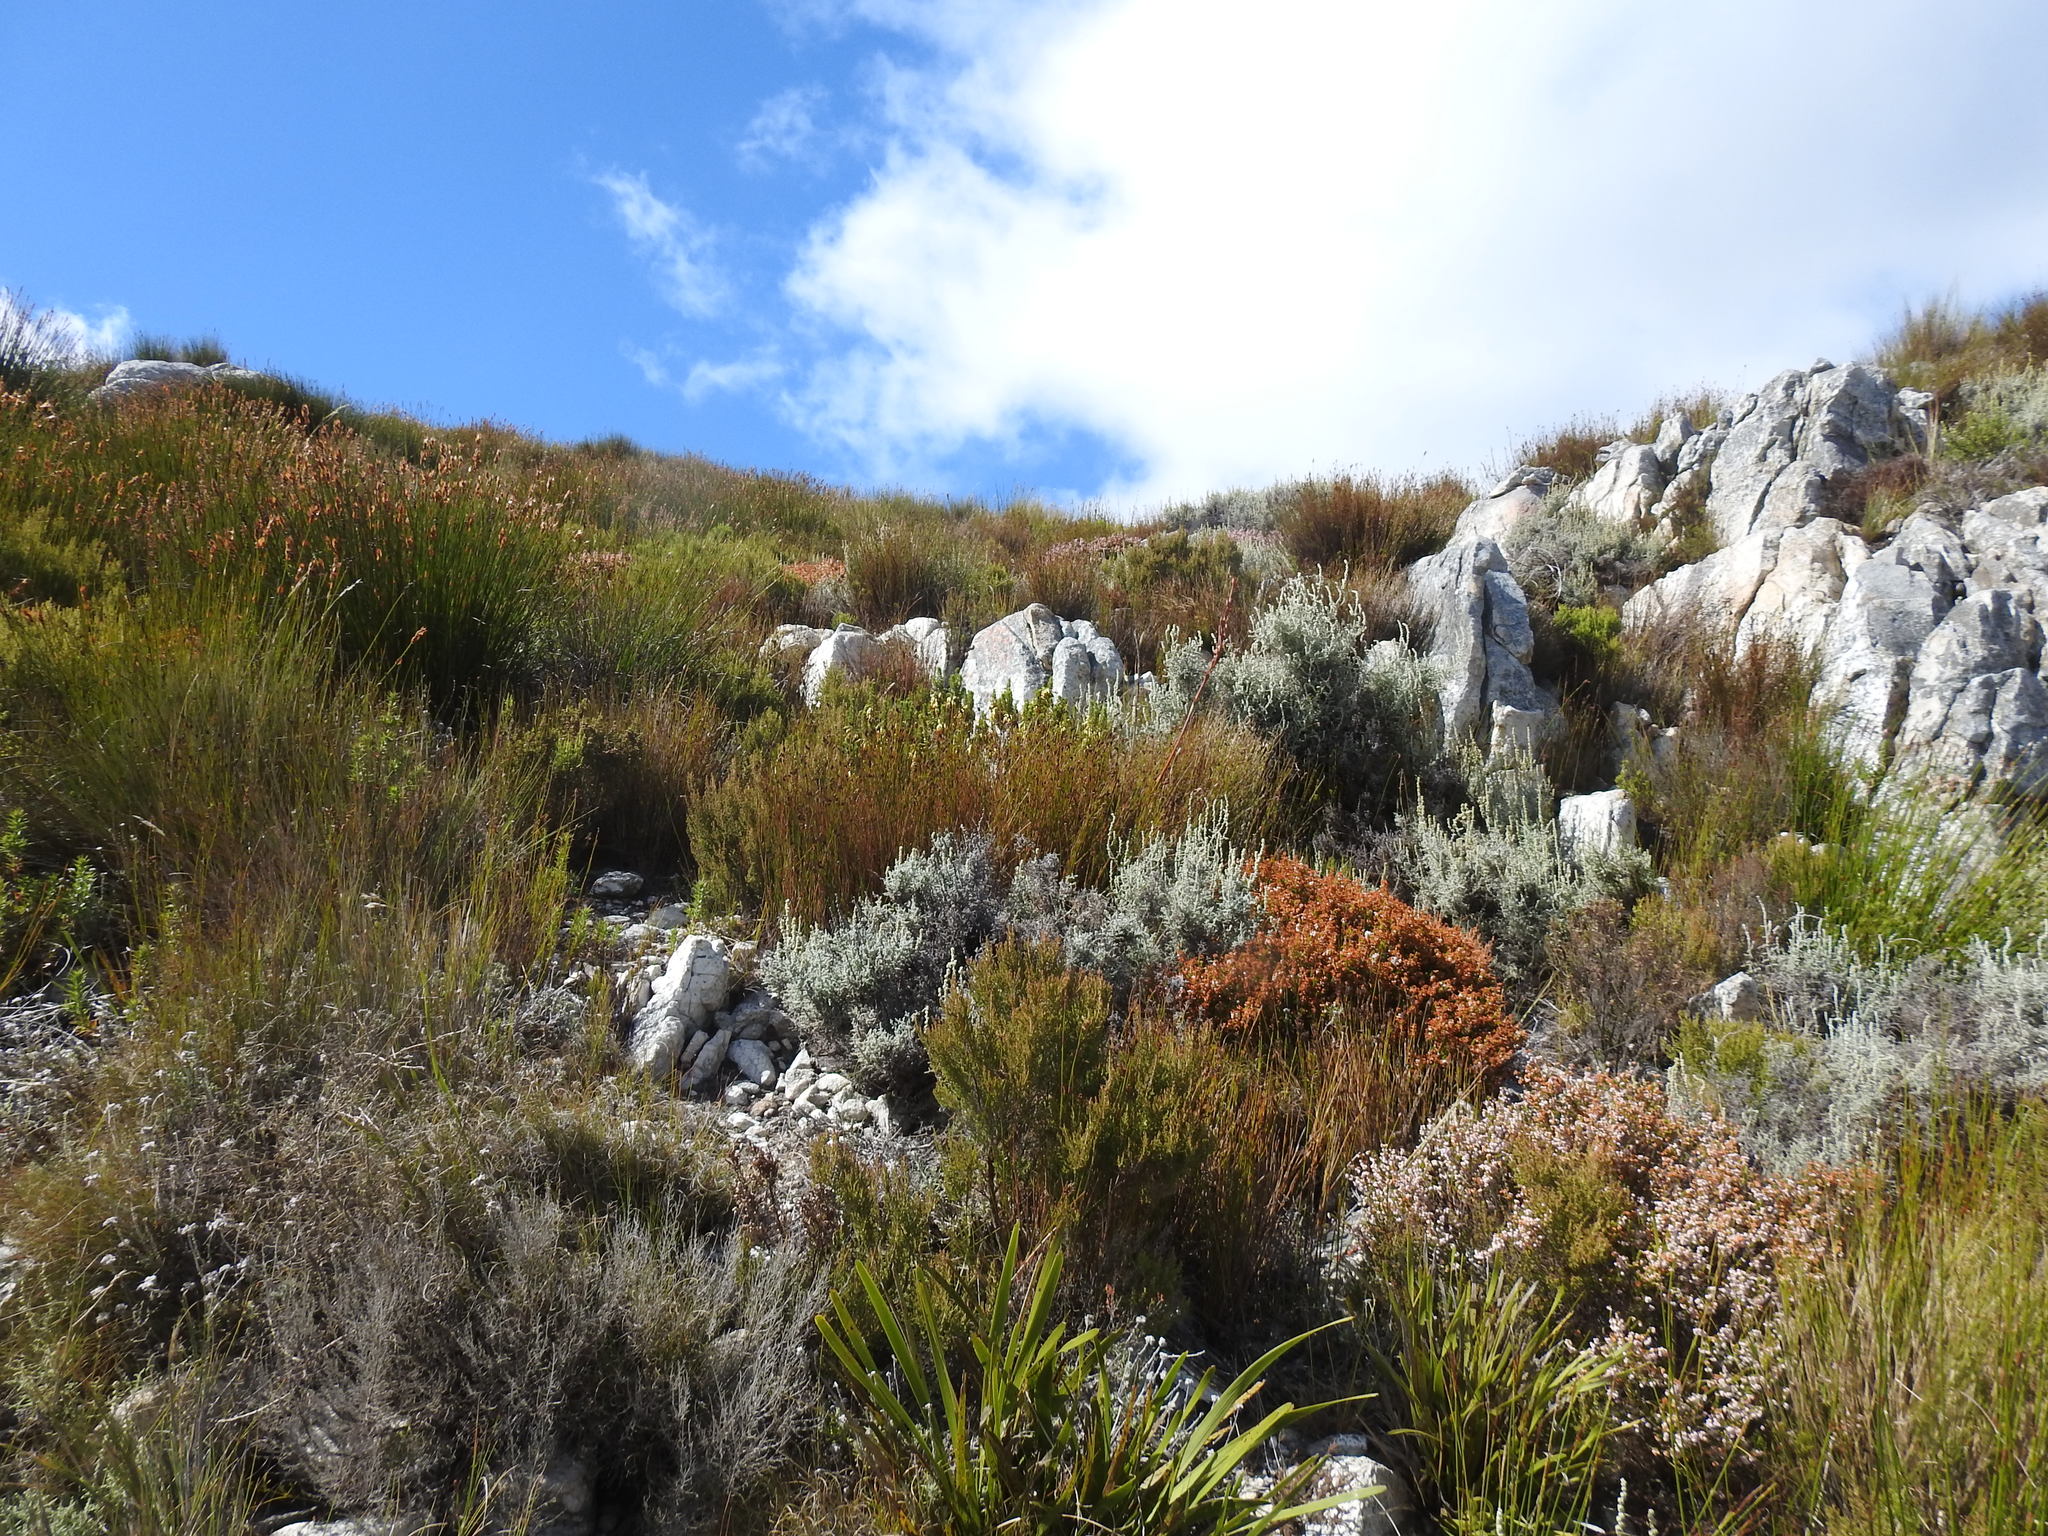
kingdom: Plantae
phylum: Tracheophyta
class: Magnoliopsida
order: Ericales
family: Ericaceae
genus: Erica
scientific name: Erica coccinea
